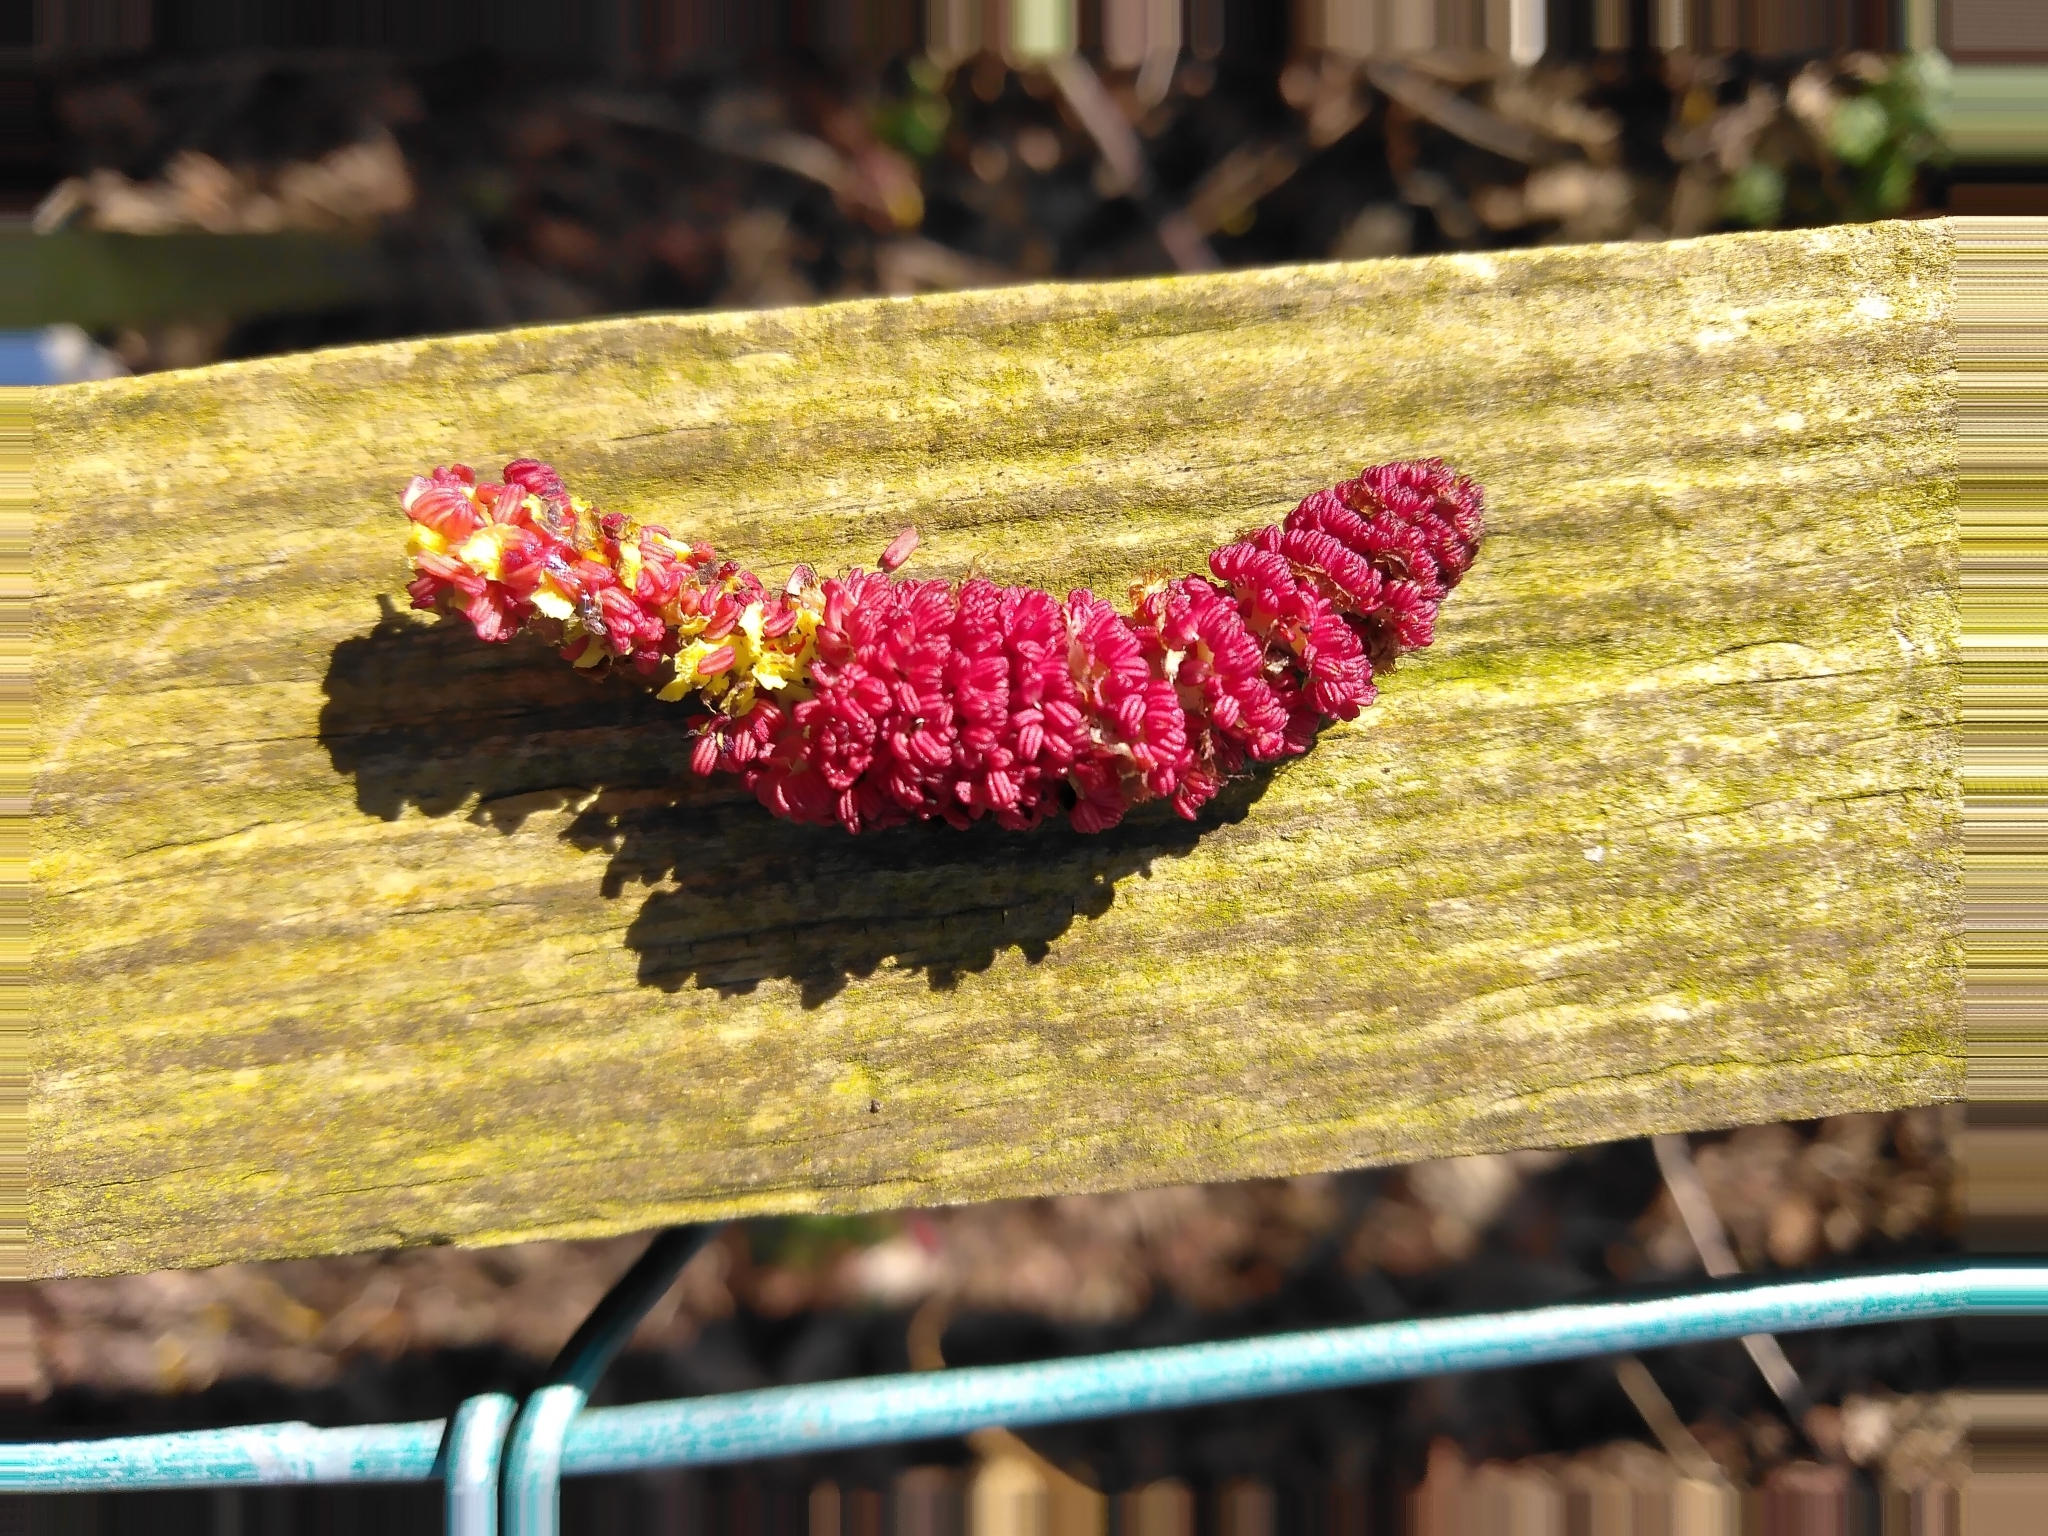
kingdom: Plantae
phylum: Tracheophyta
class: Magnoliopsida
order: Malpighiales
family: Salicaceae
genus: Populus
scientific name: Populus nigra
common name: Black poplar
